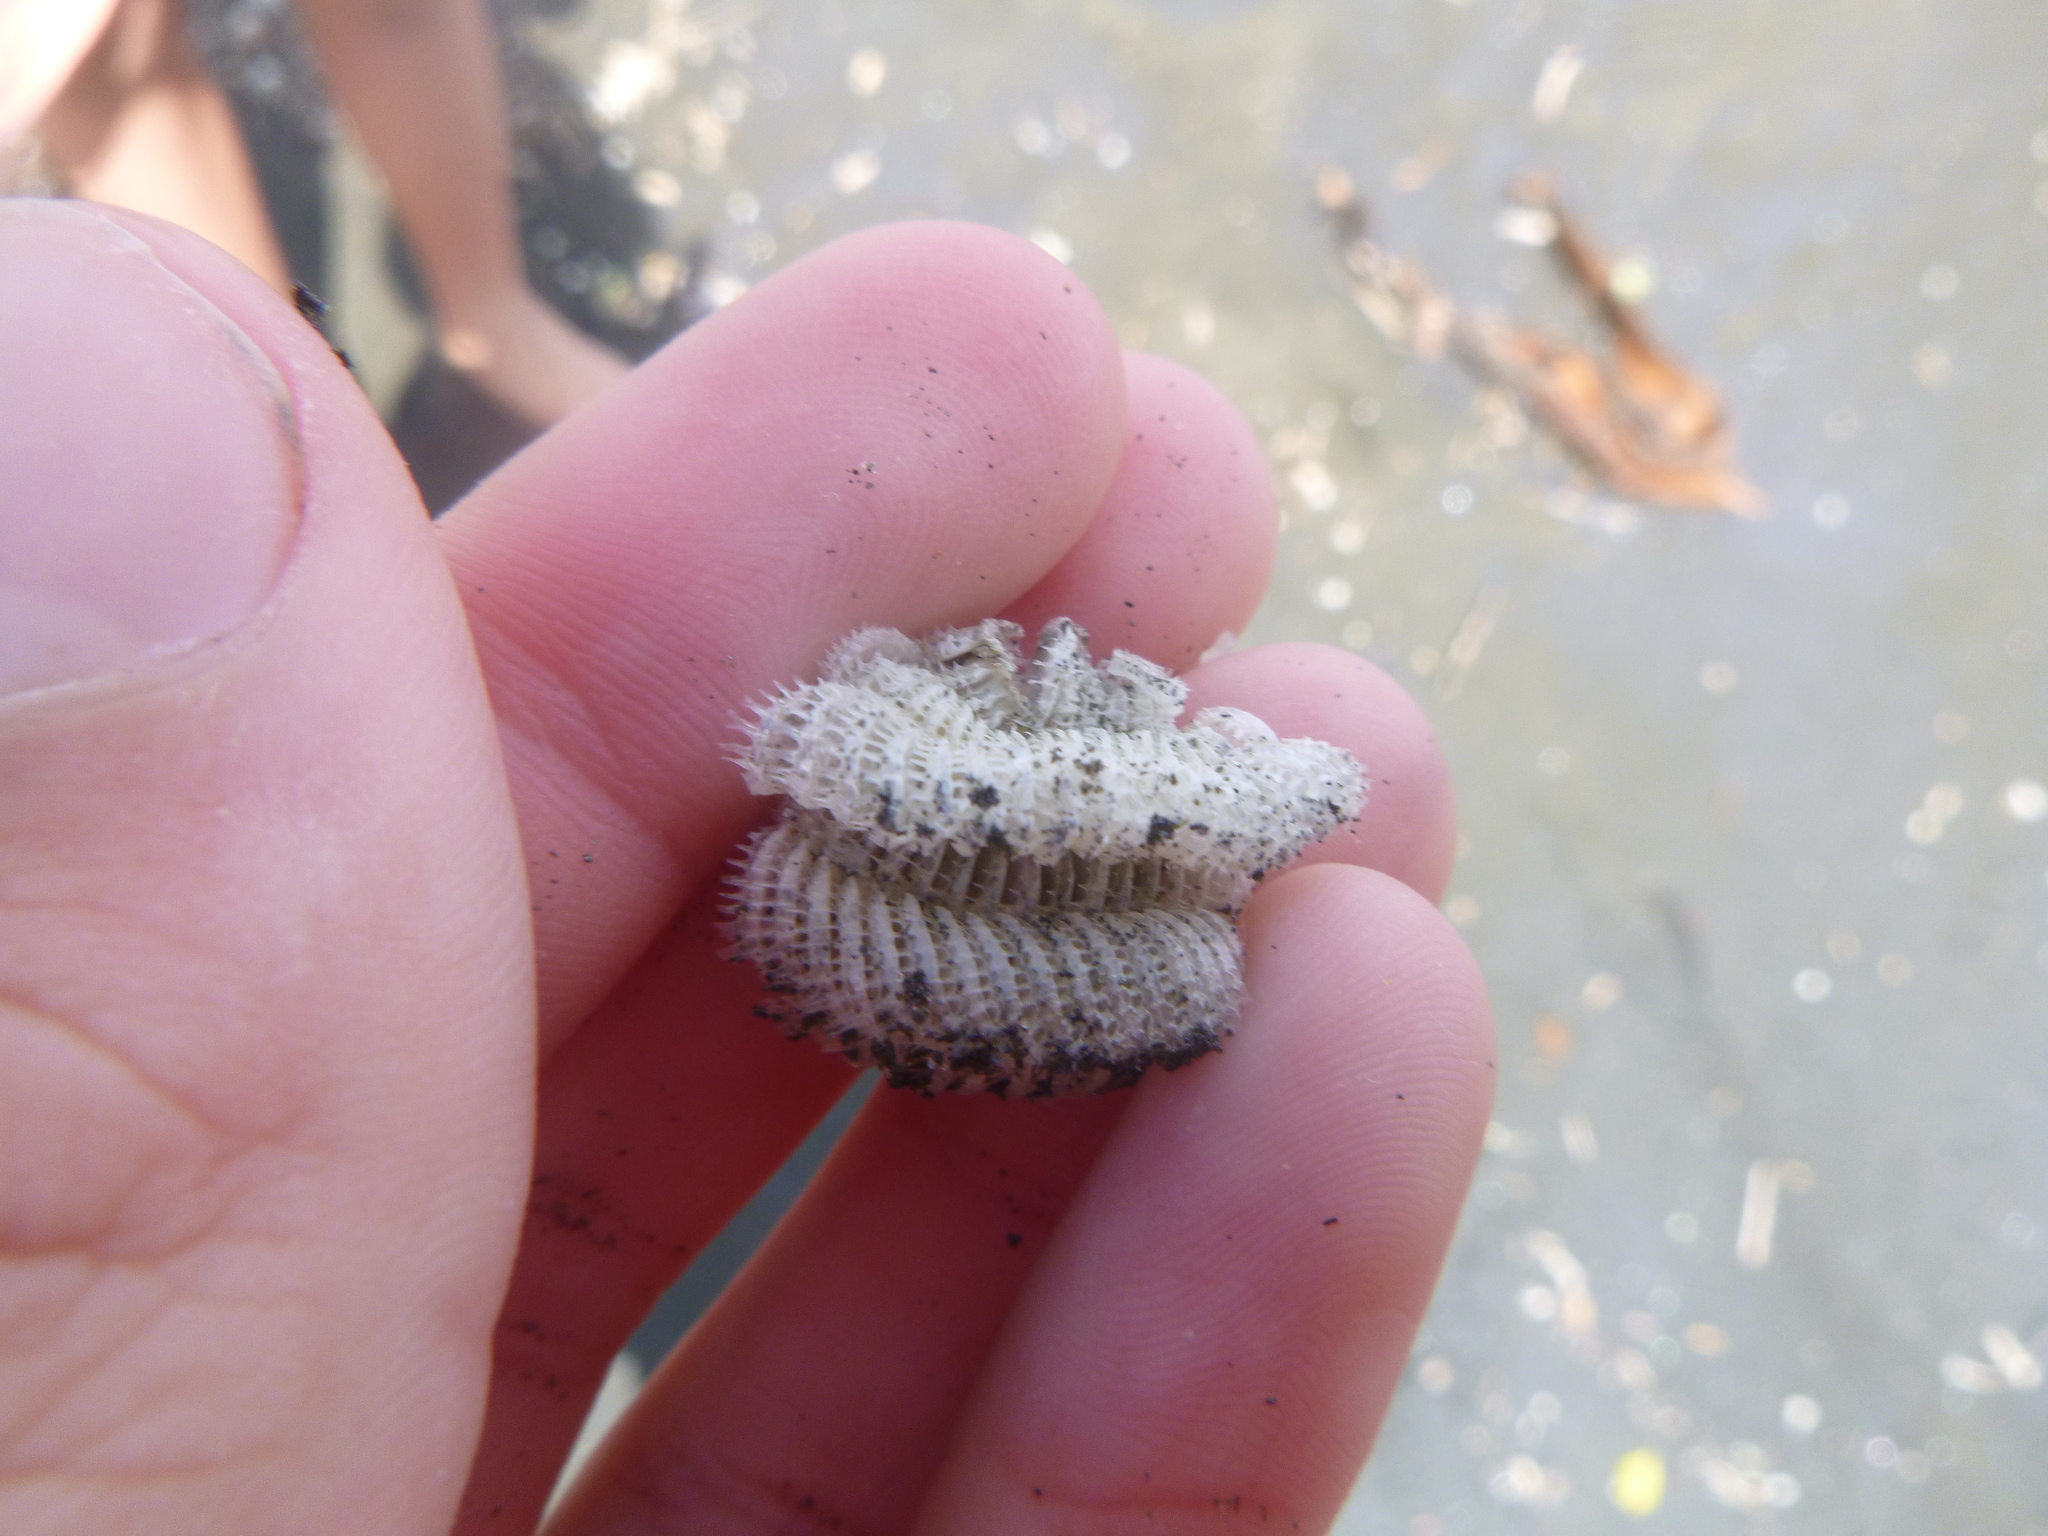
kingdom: Animalia
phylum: Mollusca
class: Gastropoda
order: Neogastropoda
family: Muricidae
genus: Poirieria
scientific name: Poirieria zelandica
